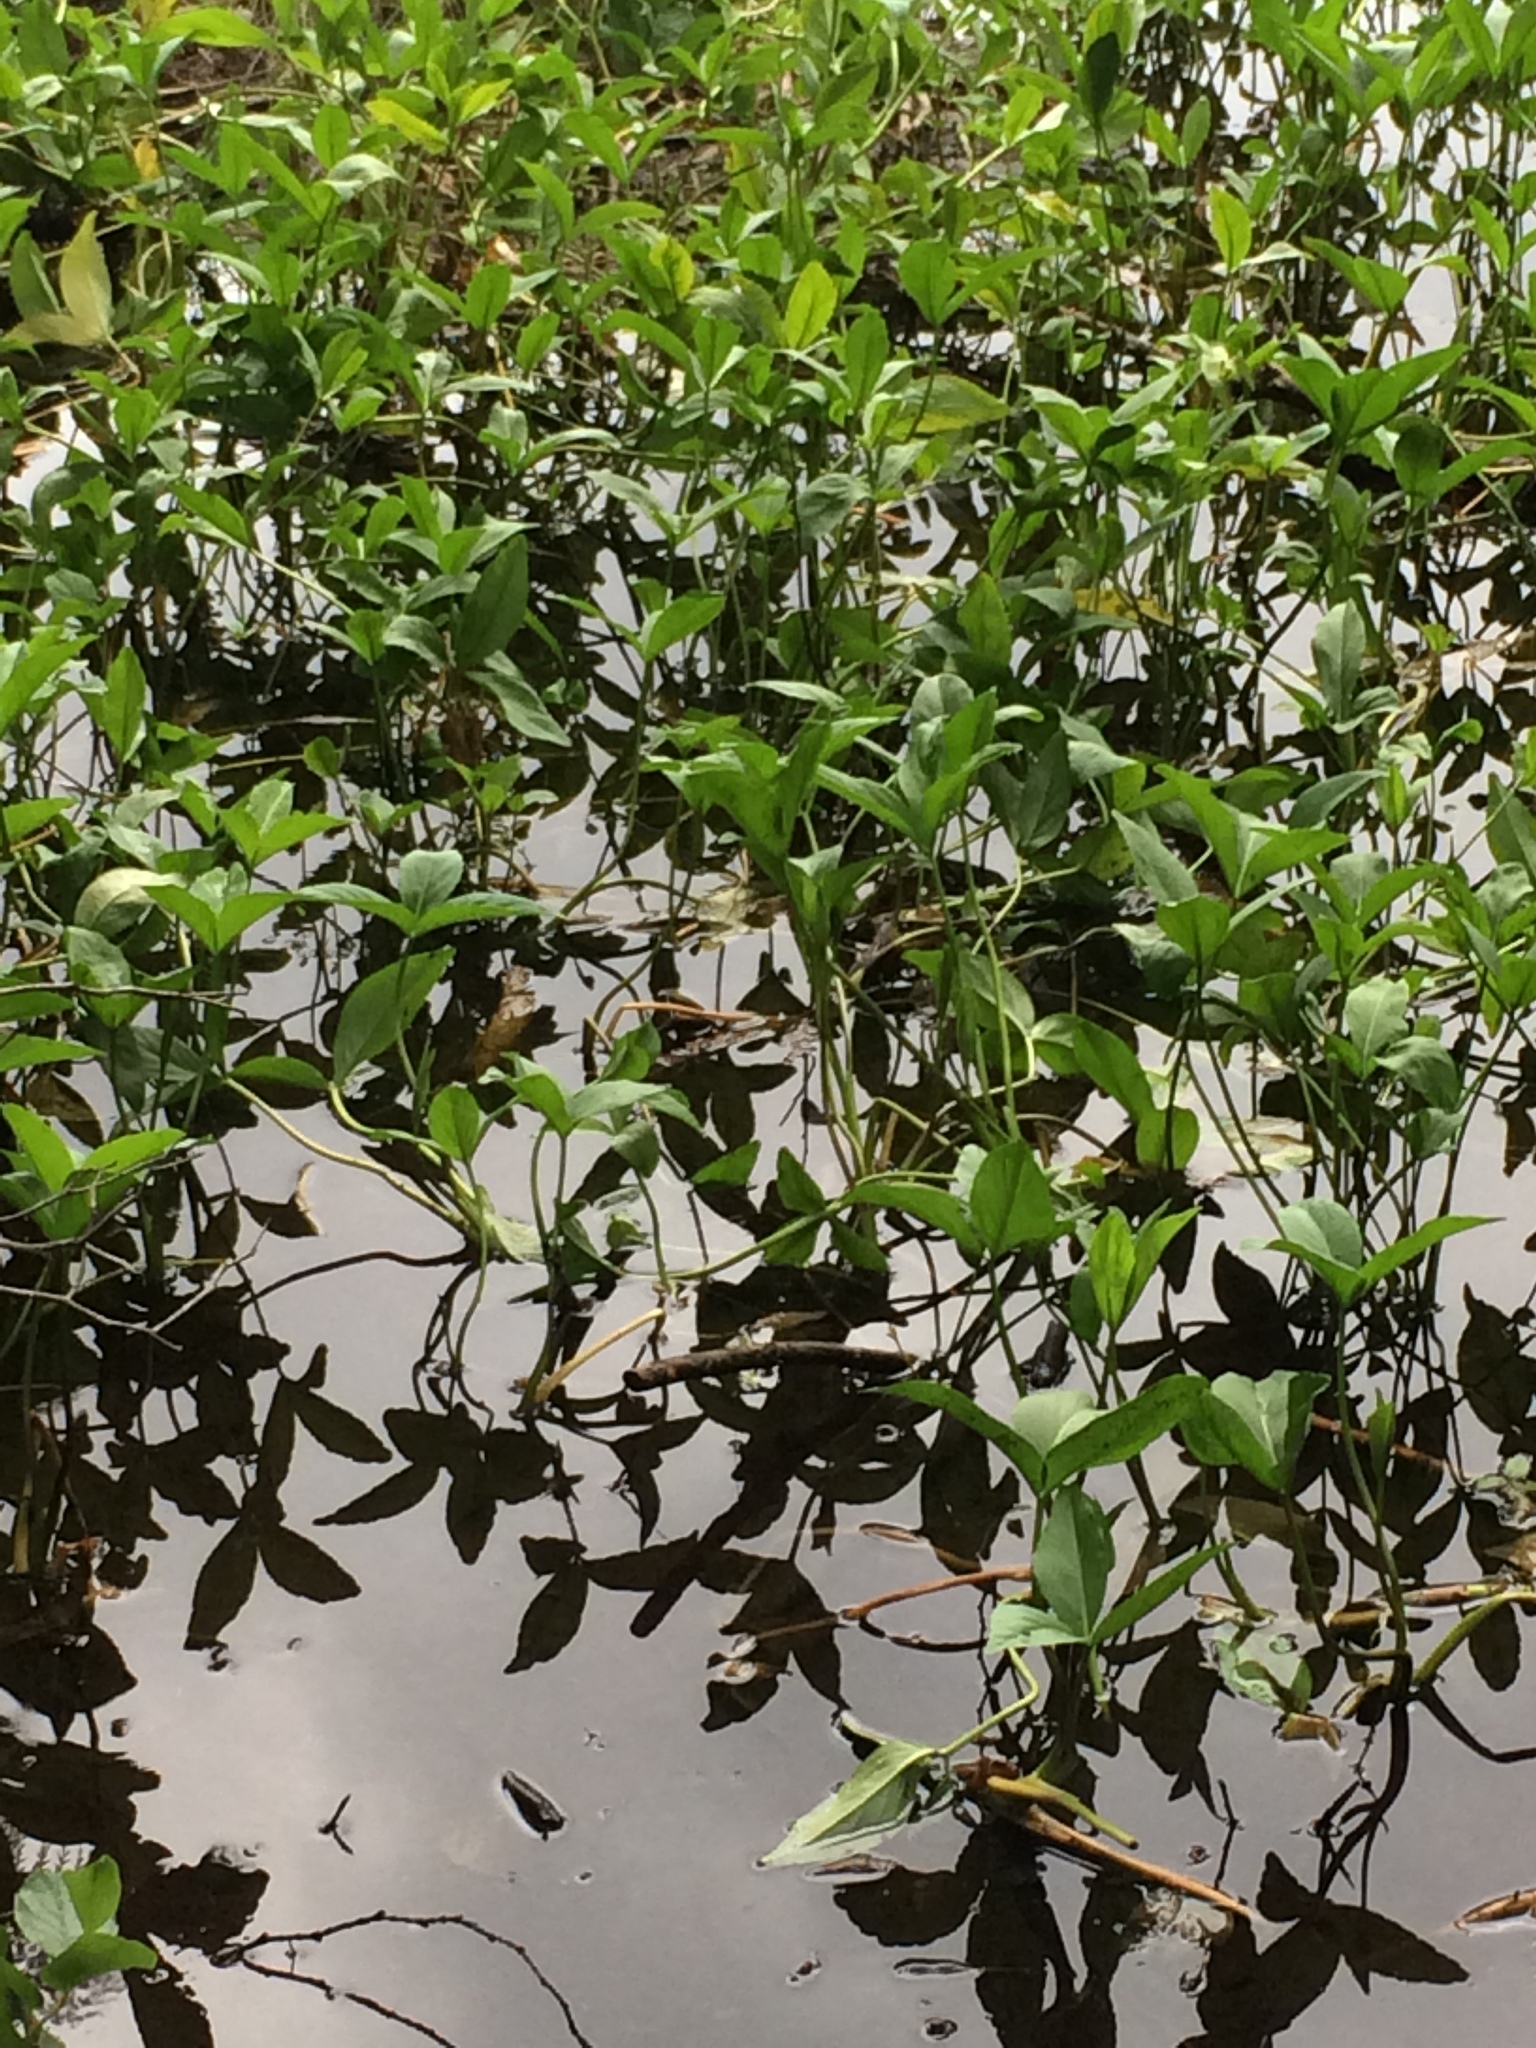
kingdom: Plantae
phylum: Tracheophyta
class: Magnoliopsida
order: Asterales
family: Menyanthaceae
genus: Menyanthes
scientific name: Menyanthes trifoliata
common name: Bogbean
